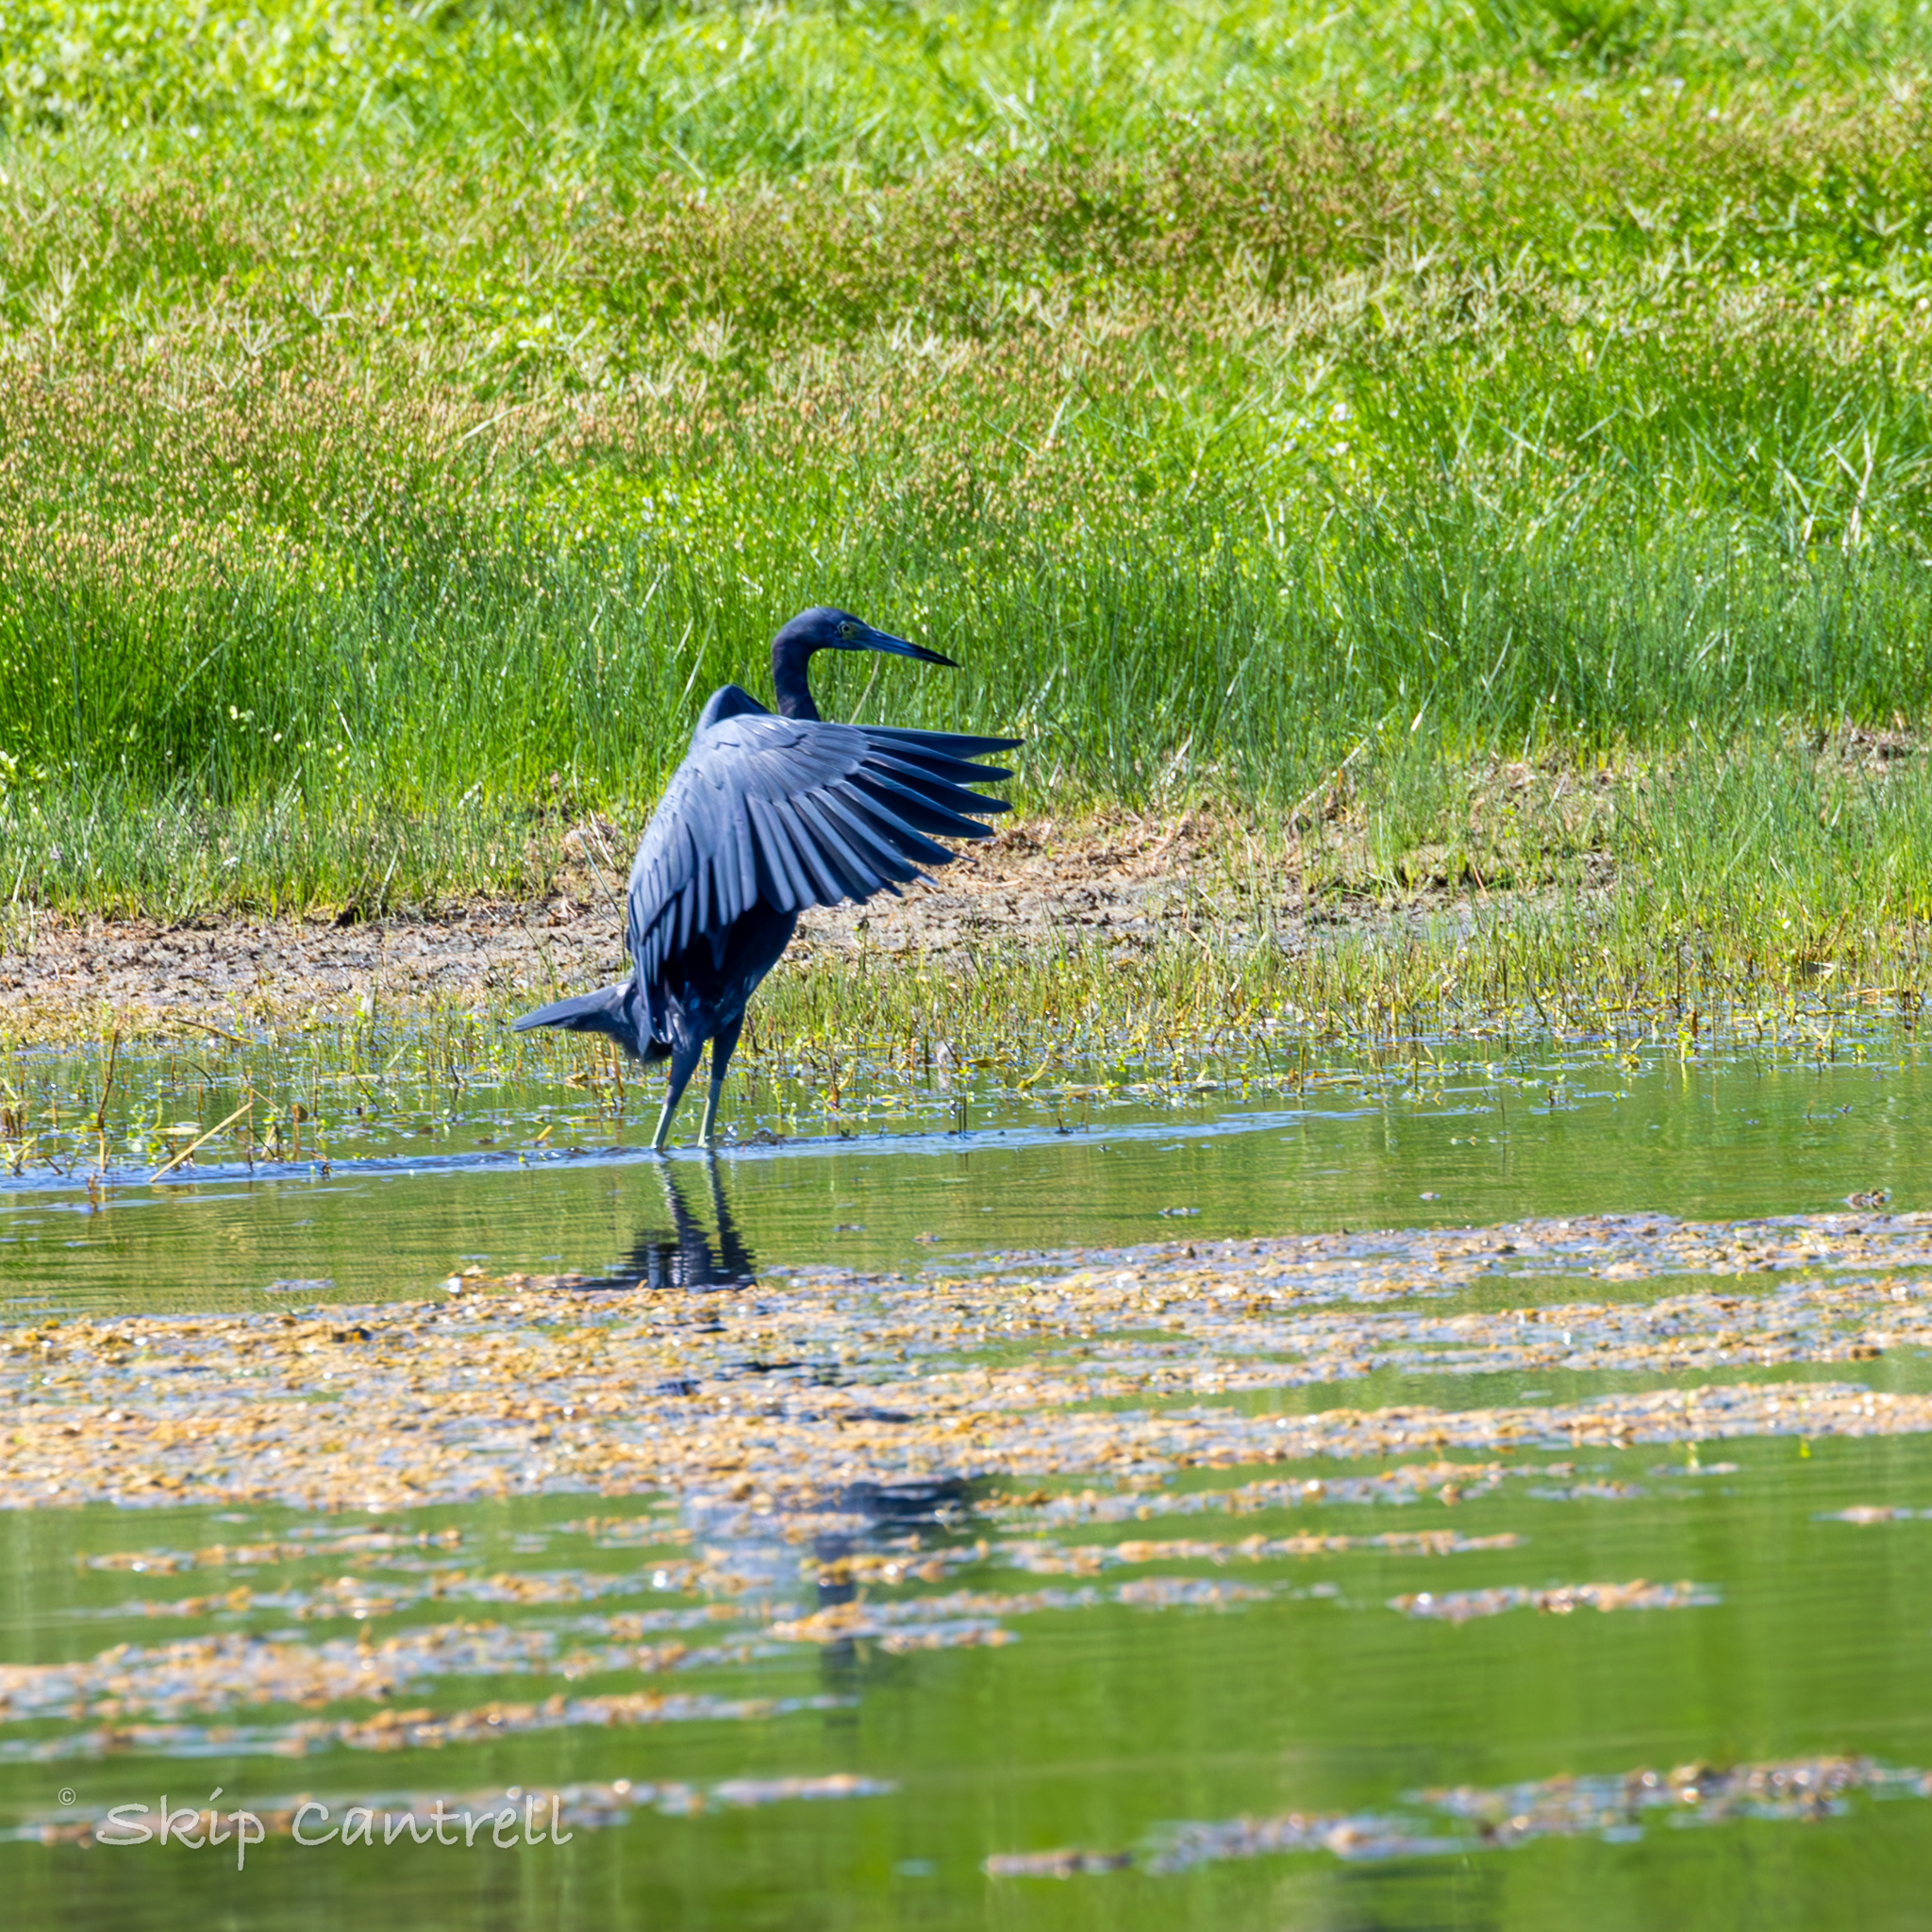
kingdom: Animalia
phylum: Chordata
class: Aves
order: Pelecaniformes
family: Ardeidae
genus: Egretta
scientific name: Egretta caerulea
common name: Little blue heron
